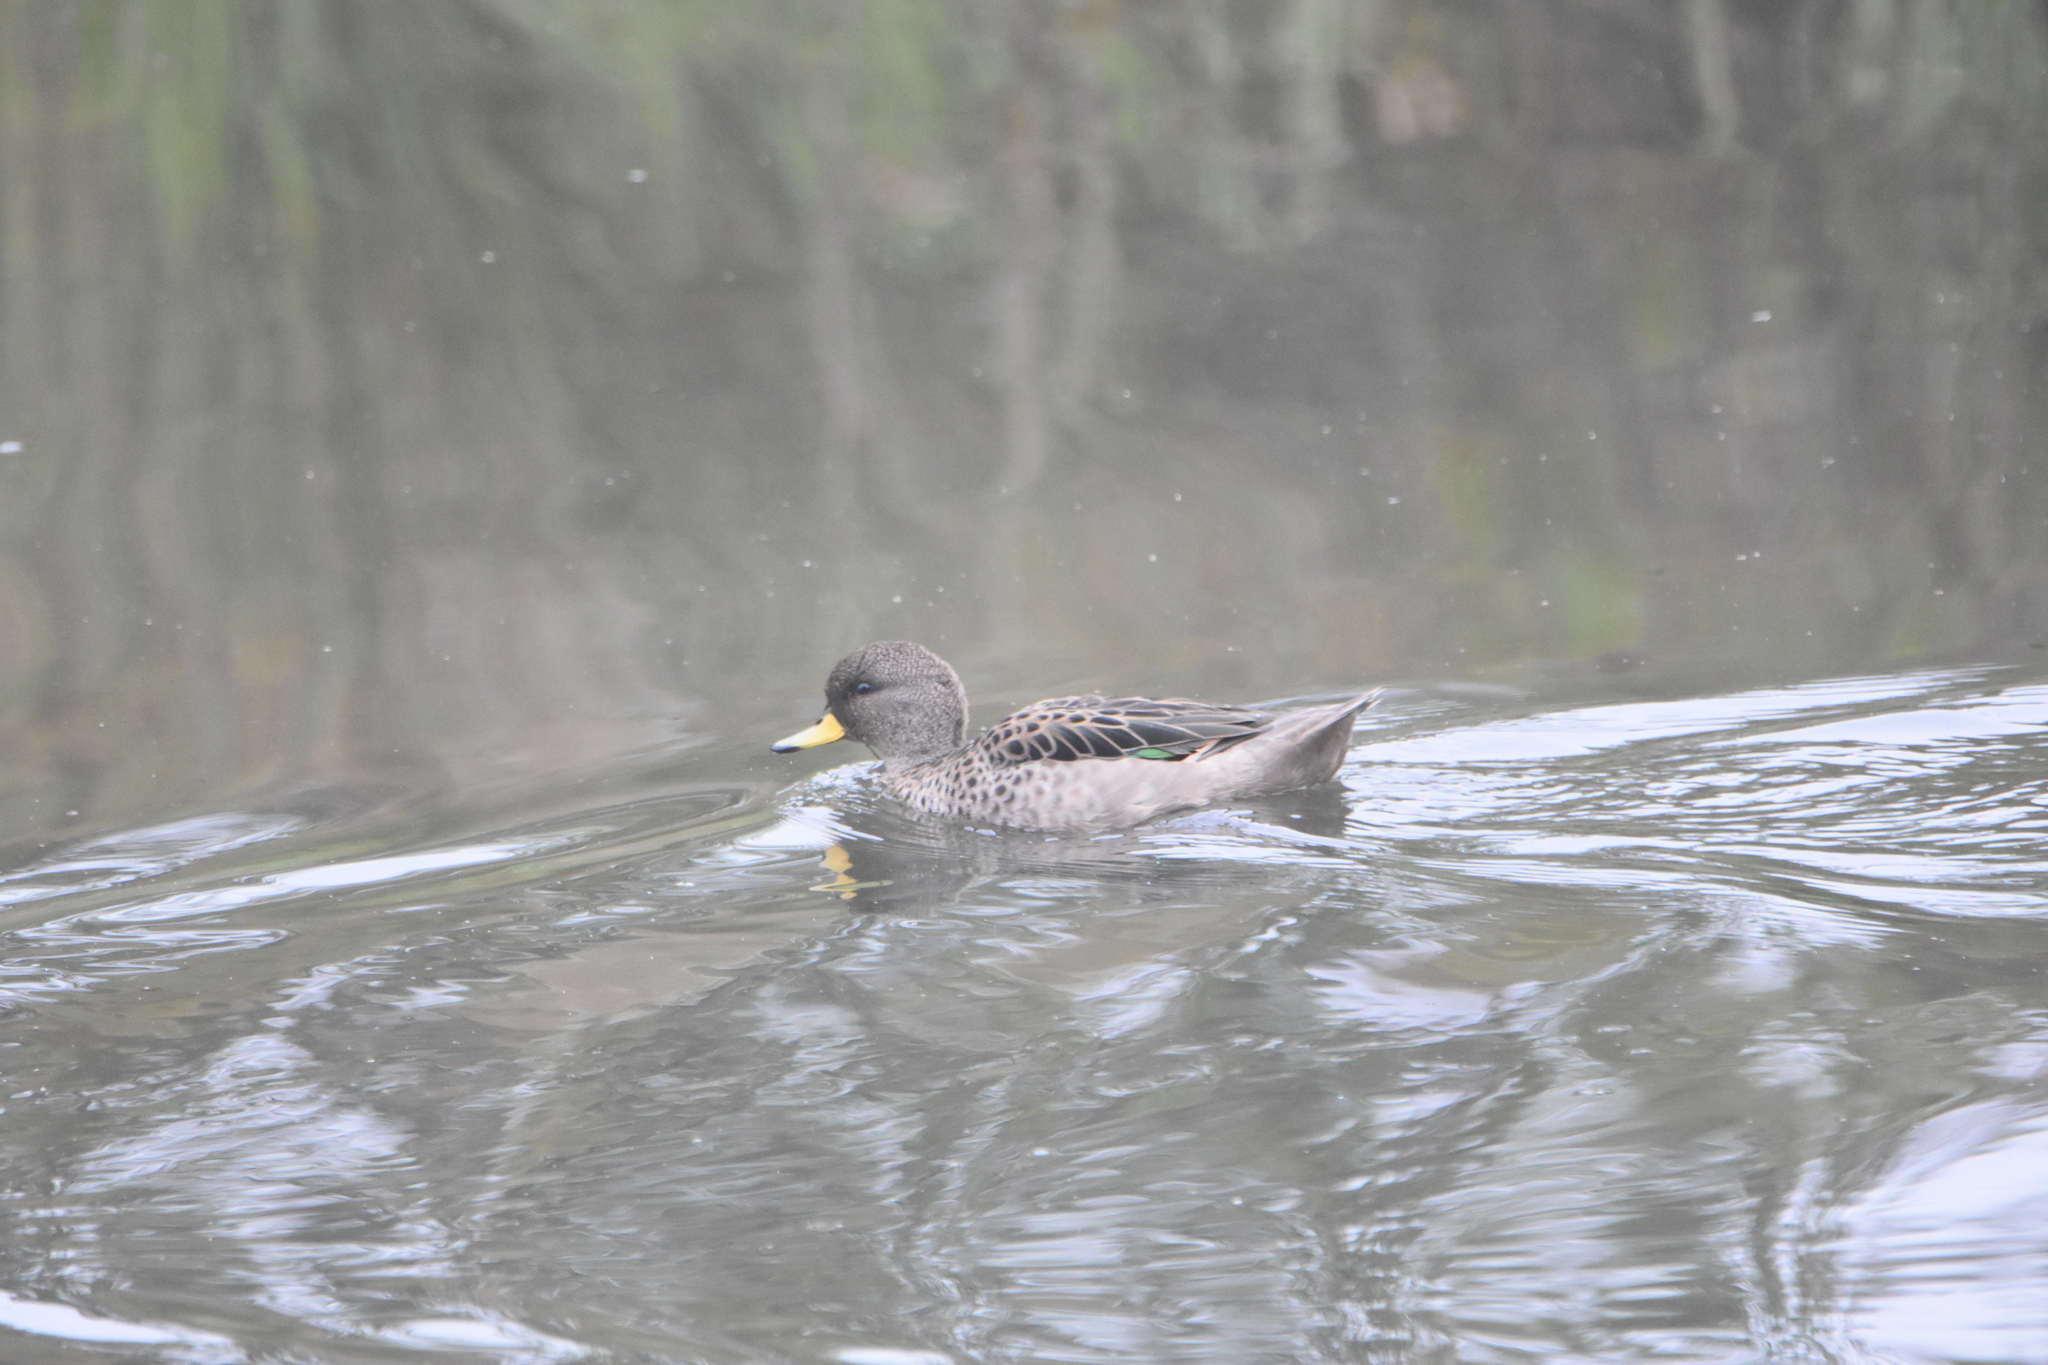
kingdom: Animalia
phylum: Chordata
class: Aves
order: Anseriformes
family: Anatidae
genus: Anas
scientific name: Anas flavirostris
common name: Yellow-billed teal
